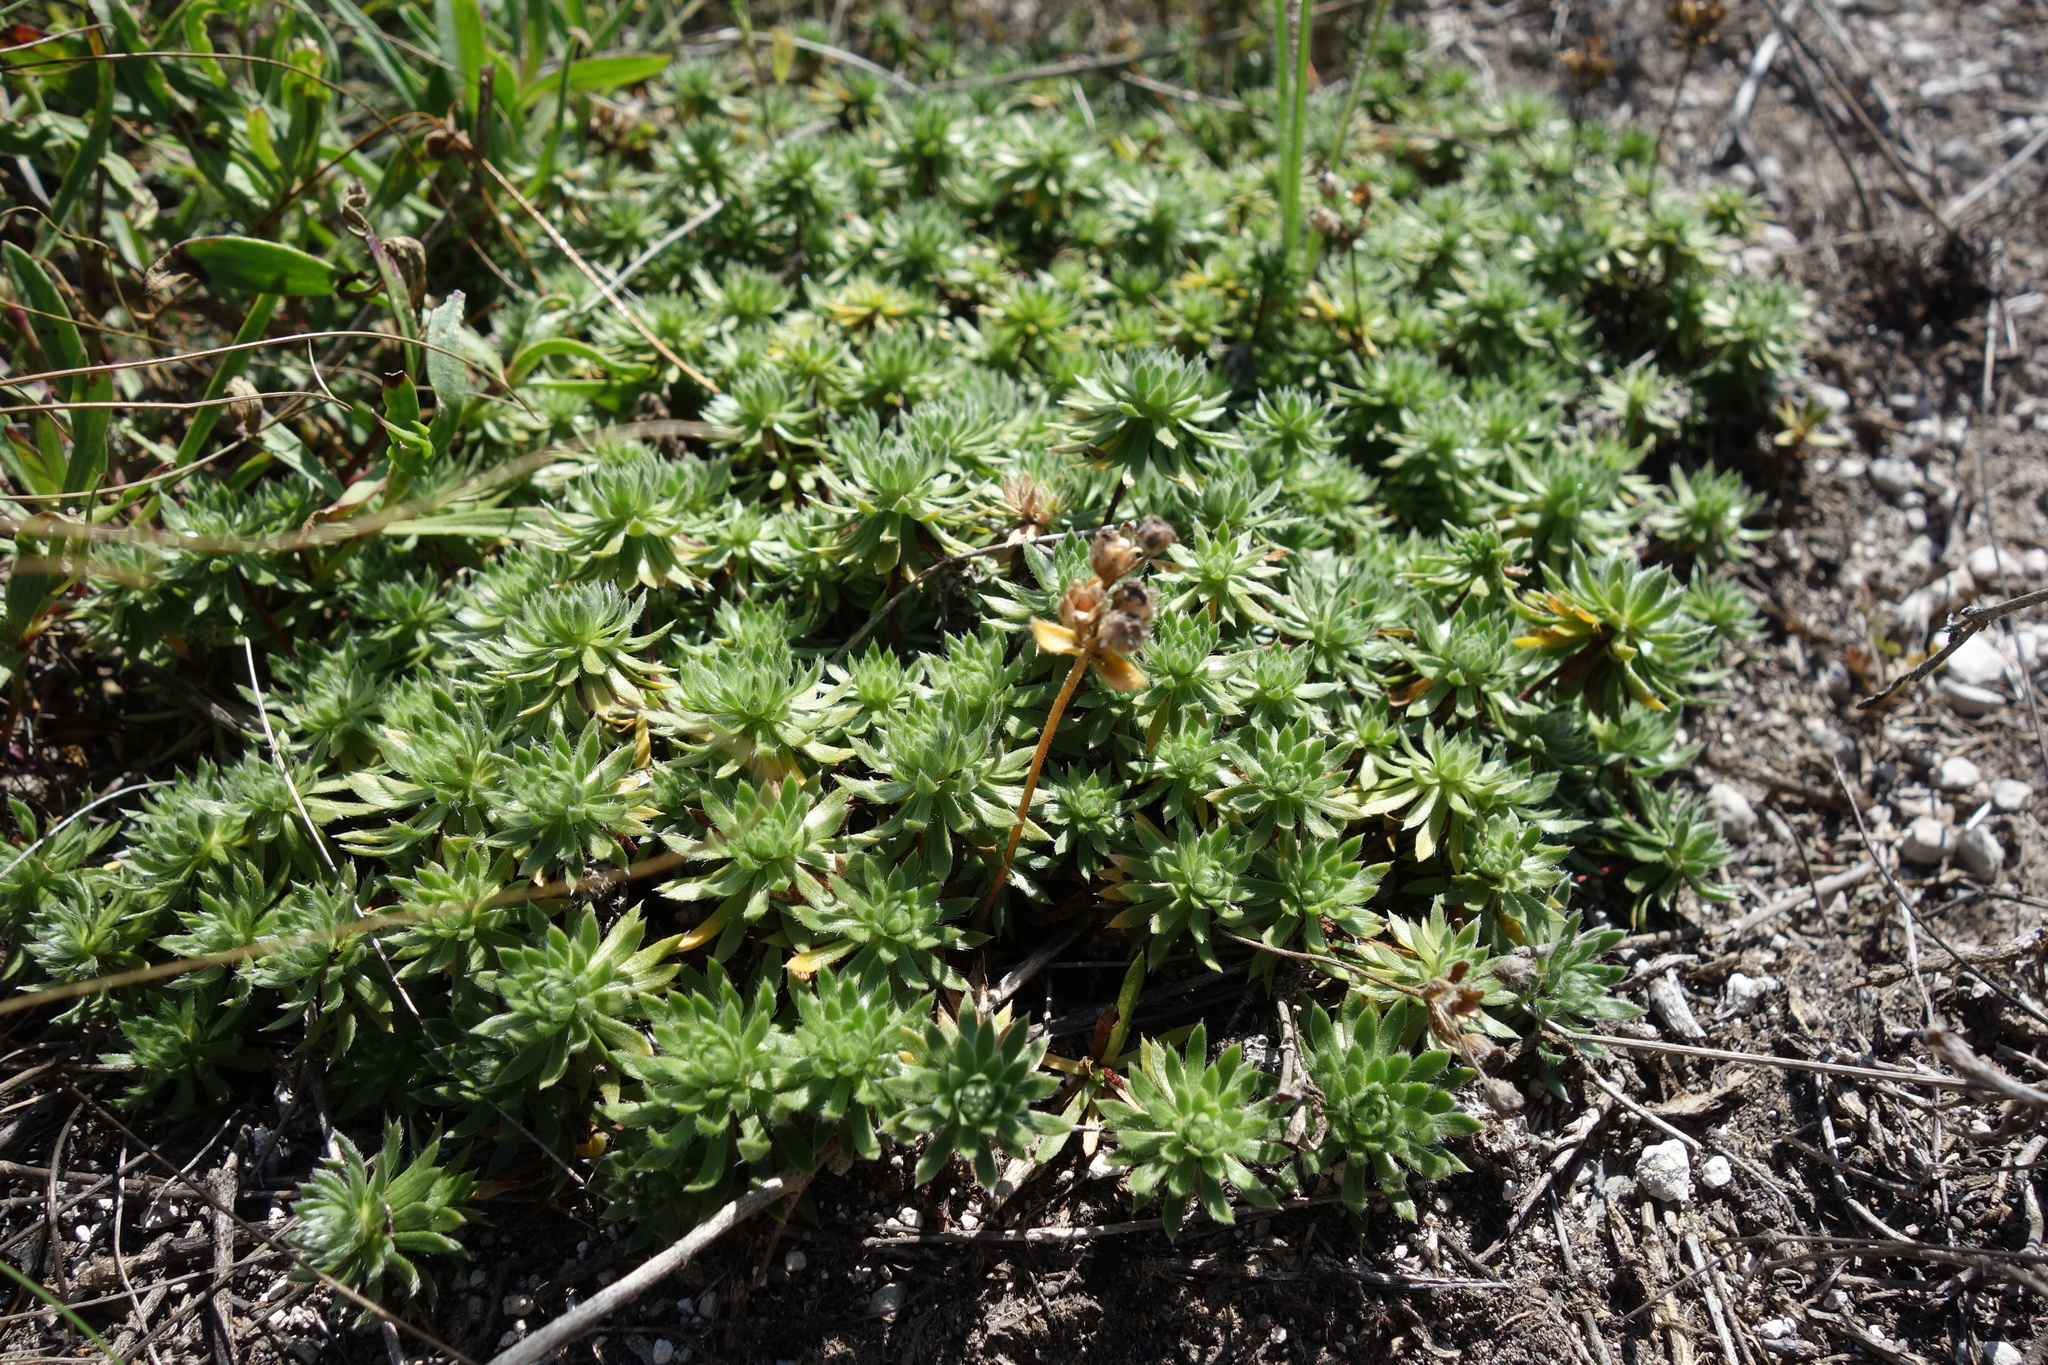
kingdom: Plantae
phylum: Tracheophyta
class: Magnoliopsida
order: Ericales
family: Primulaceae
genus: Androsace
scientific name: Androsace villosa
